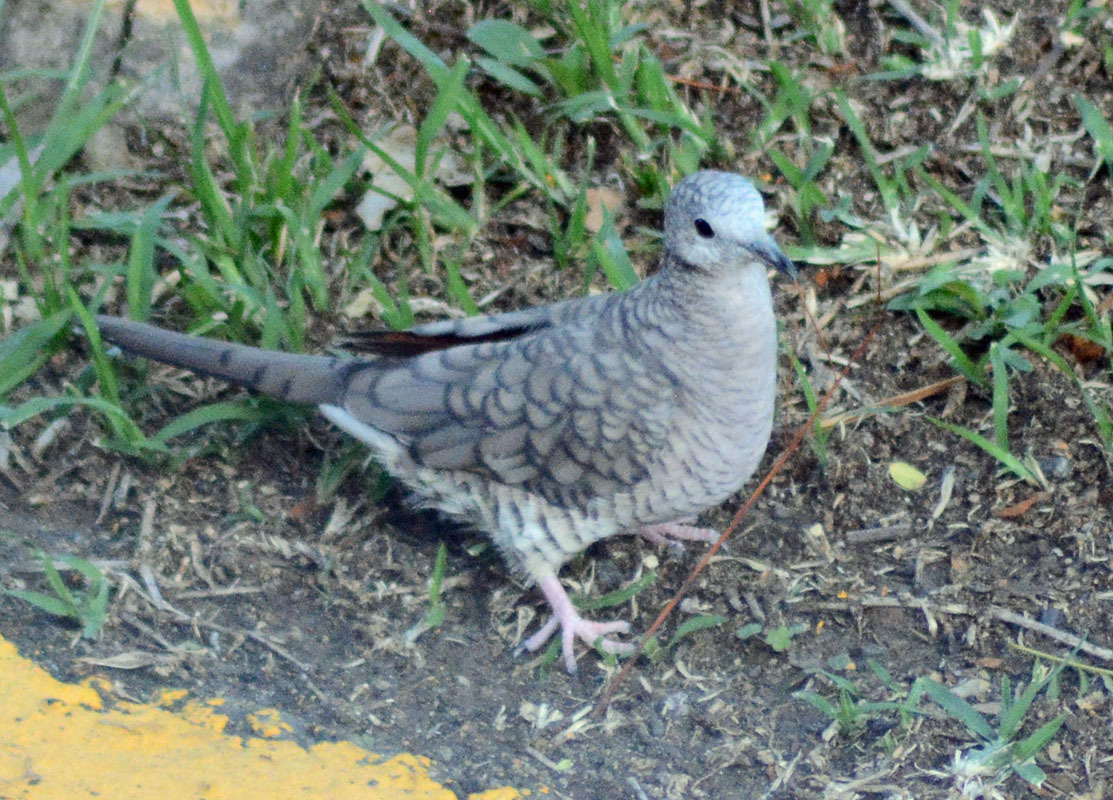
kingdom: Animalia
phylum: Chordata
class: Aves
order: Columbiformes
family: Columbidae
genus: Columbina
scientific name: Columbina inca
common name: Inca dove
